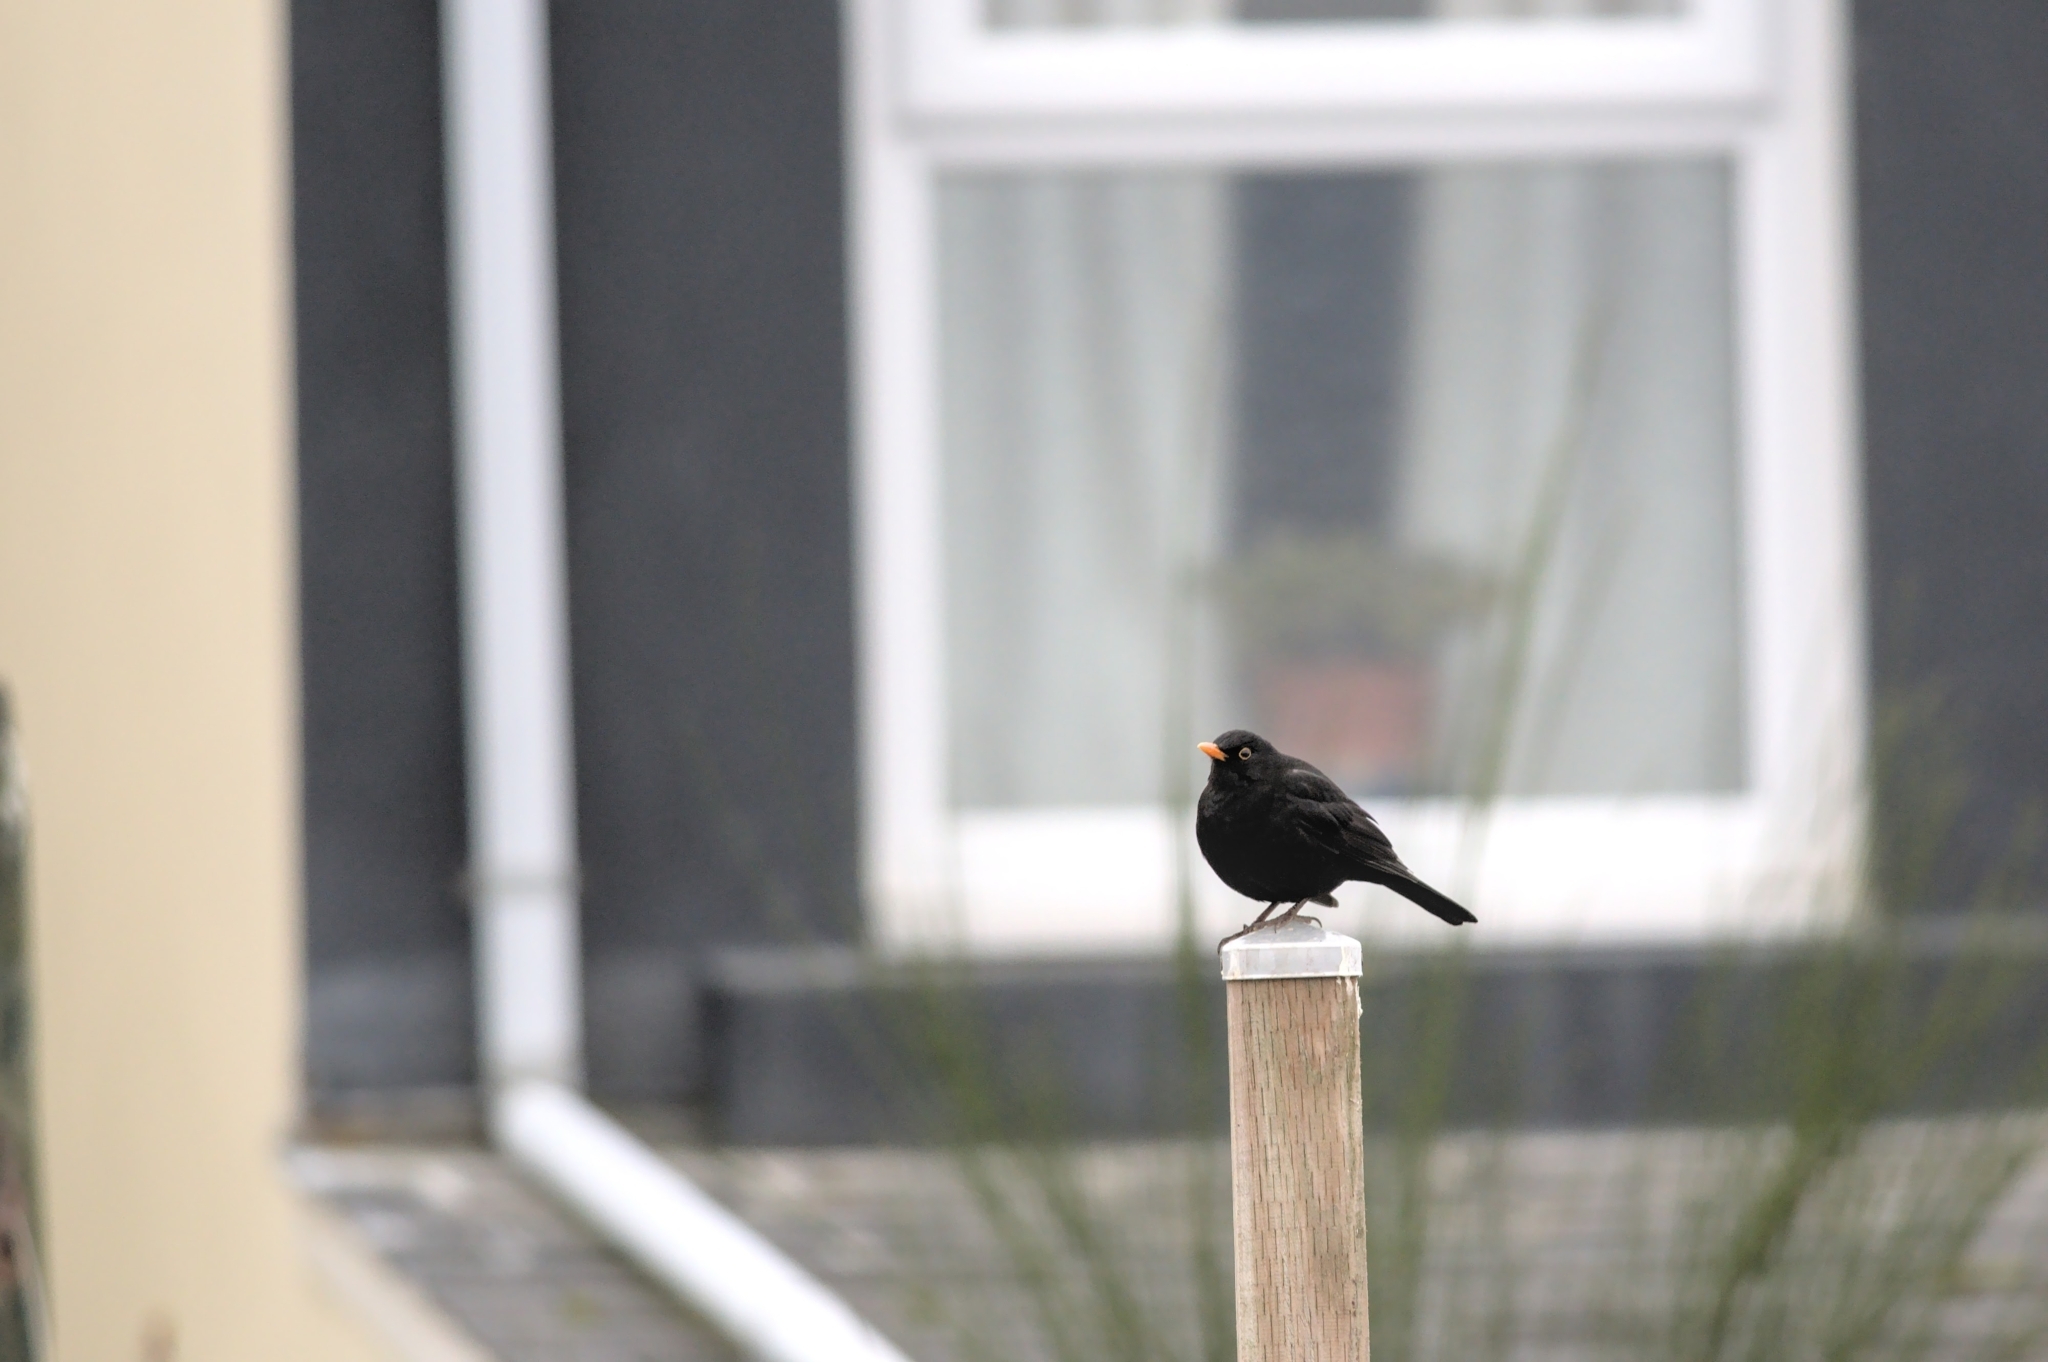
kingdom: Animalia
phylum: Chordata
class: Aves
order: Passeriformes
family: Turdidae
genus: Turdus
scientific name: Turdus merula
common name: Common blackbird
